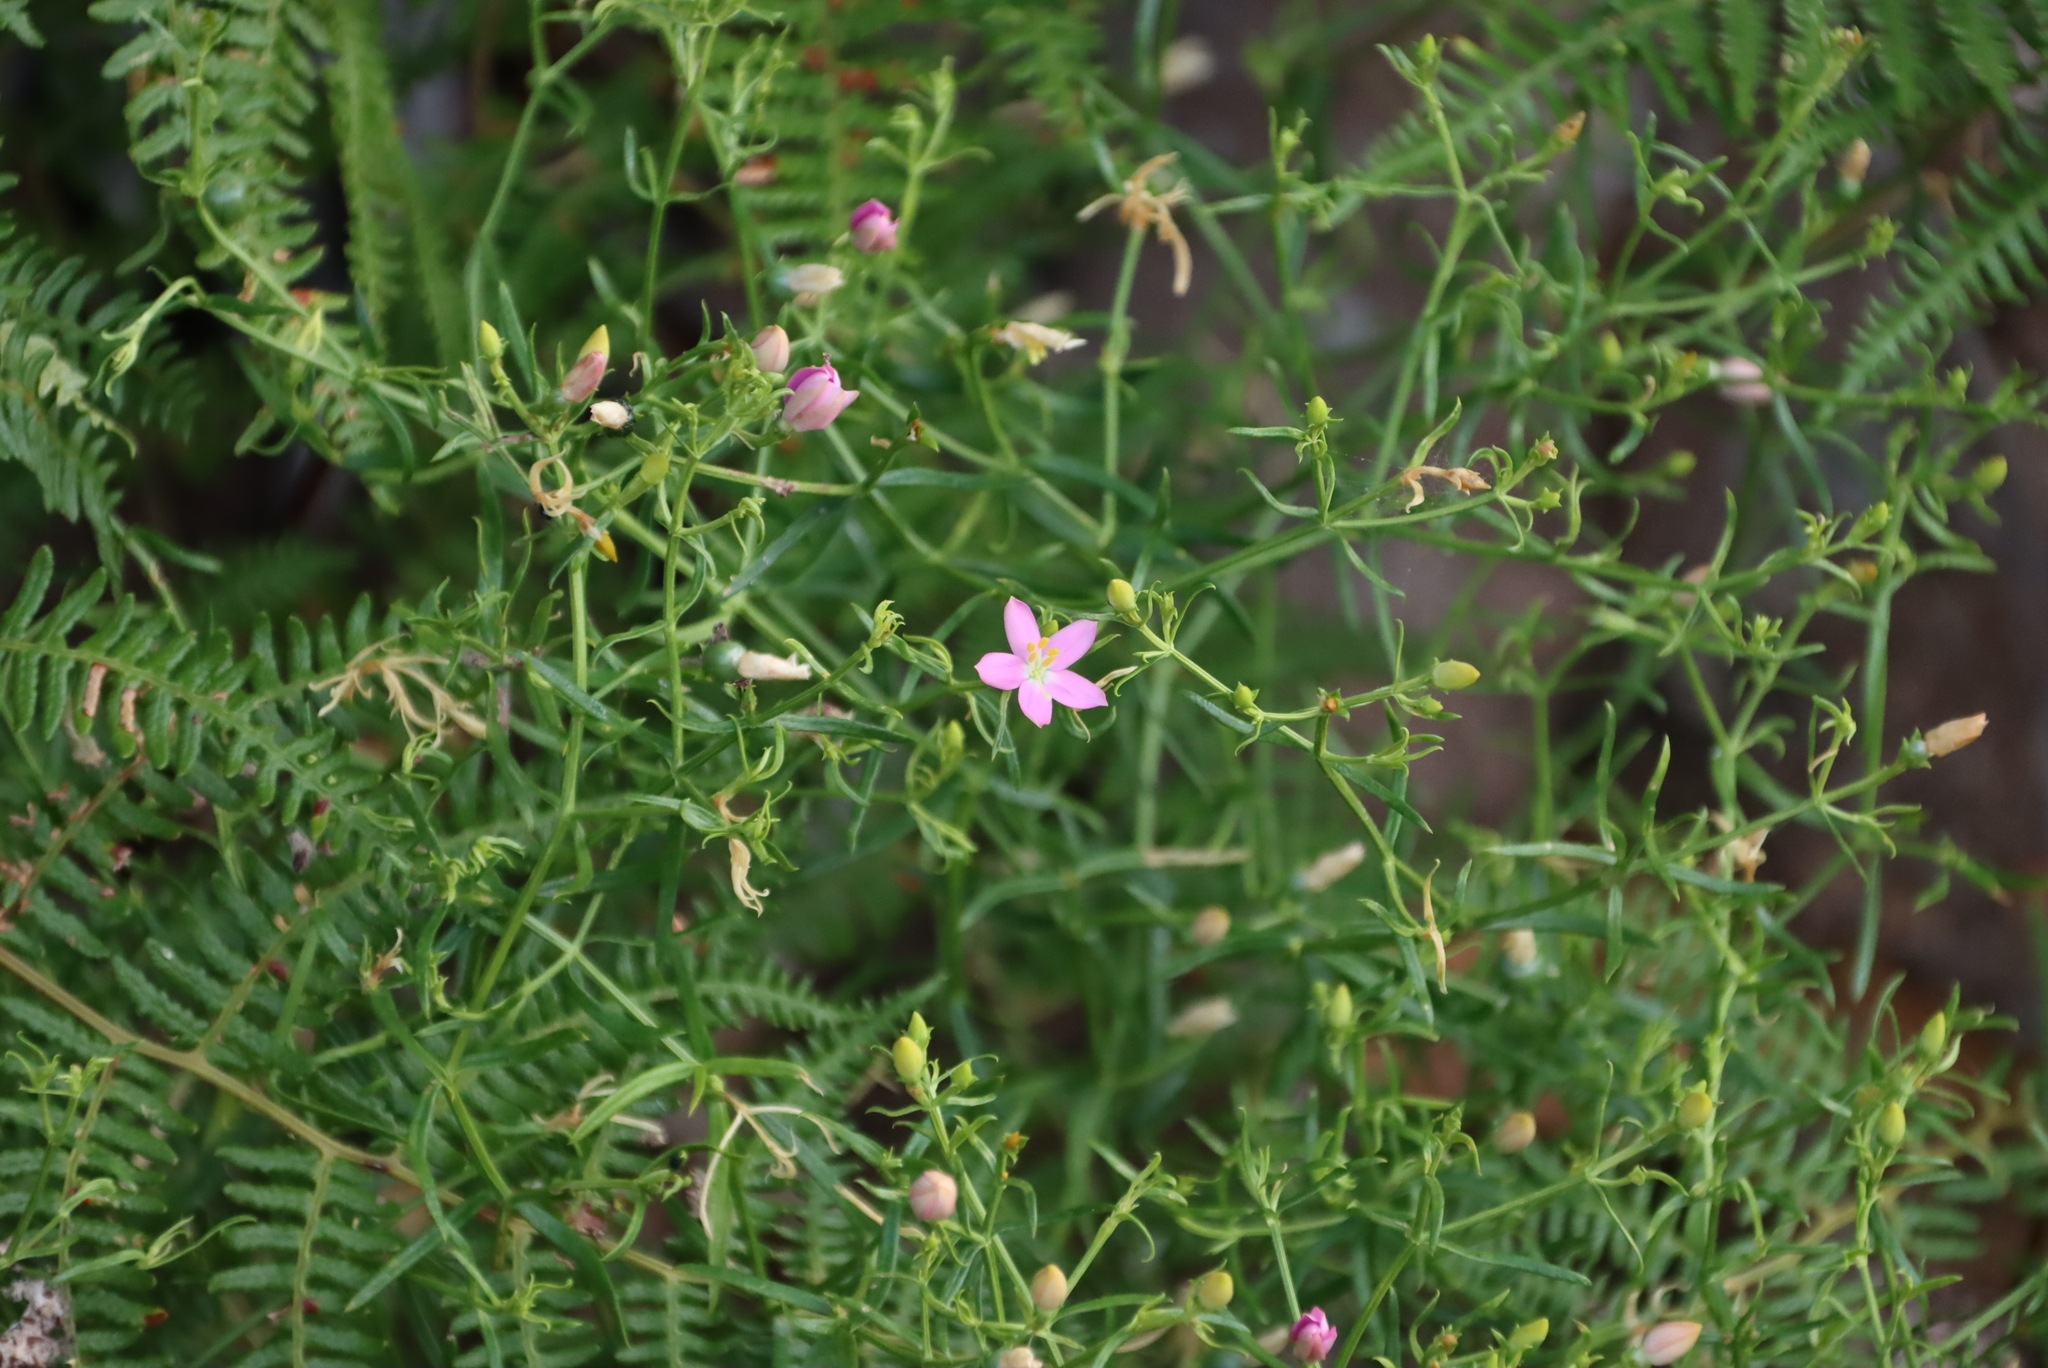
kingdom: Plantae
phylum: Tracheophyta
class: Magnoliopsida
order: Gentianales
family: Gentianaceae
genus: Chironia
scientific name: Chironia baccifera
